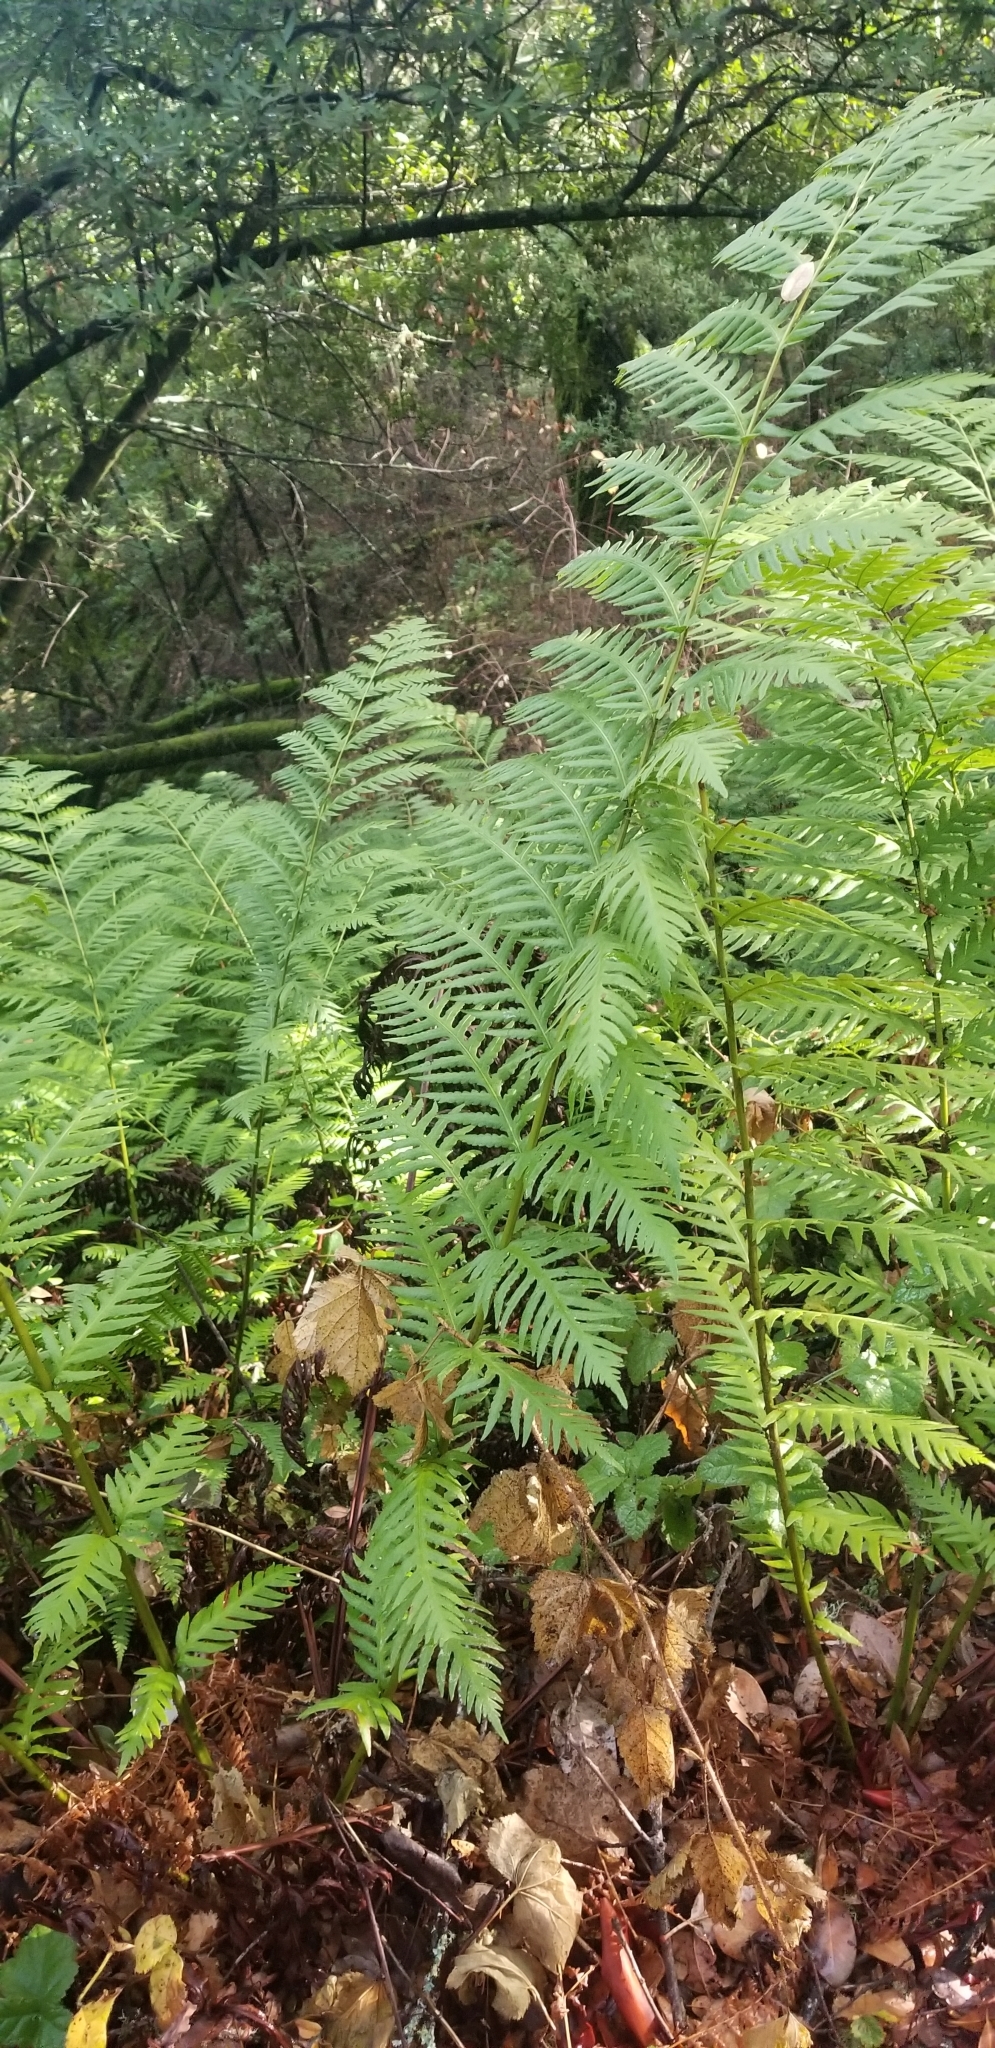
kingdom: Plantae
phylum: Tracheophyta
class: Polypodiopsida
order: Polypodiales
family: Blechnaceae
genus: Woodwardia
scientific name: Woodwardia fimbriata
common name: Giant chain fern
